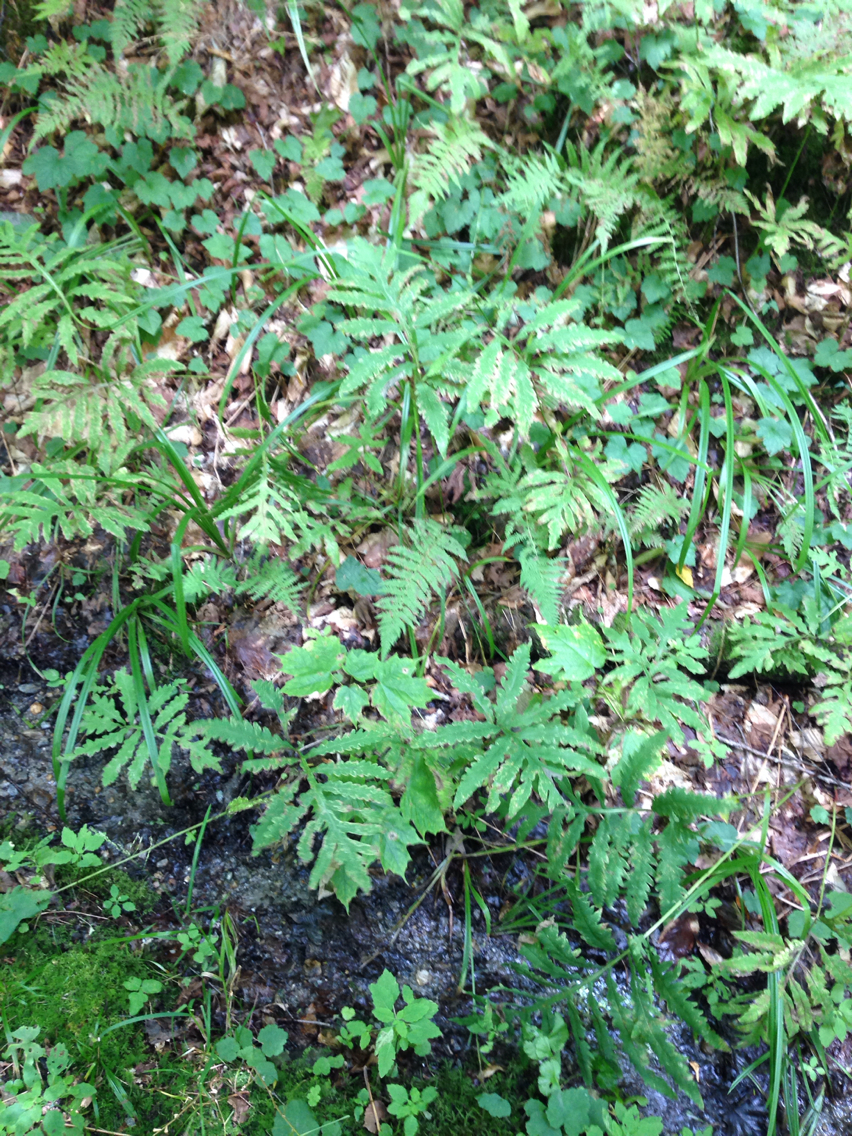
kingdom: Plantae
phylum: Tracheophyta
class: Polypodiopsida
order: Polypodiales
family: Onocleaceae
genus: Onoclea
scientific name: Onoclea sensibilis
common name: Sensitive fern
